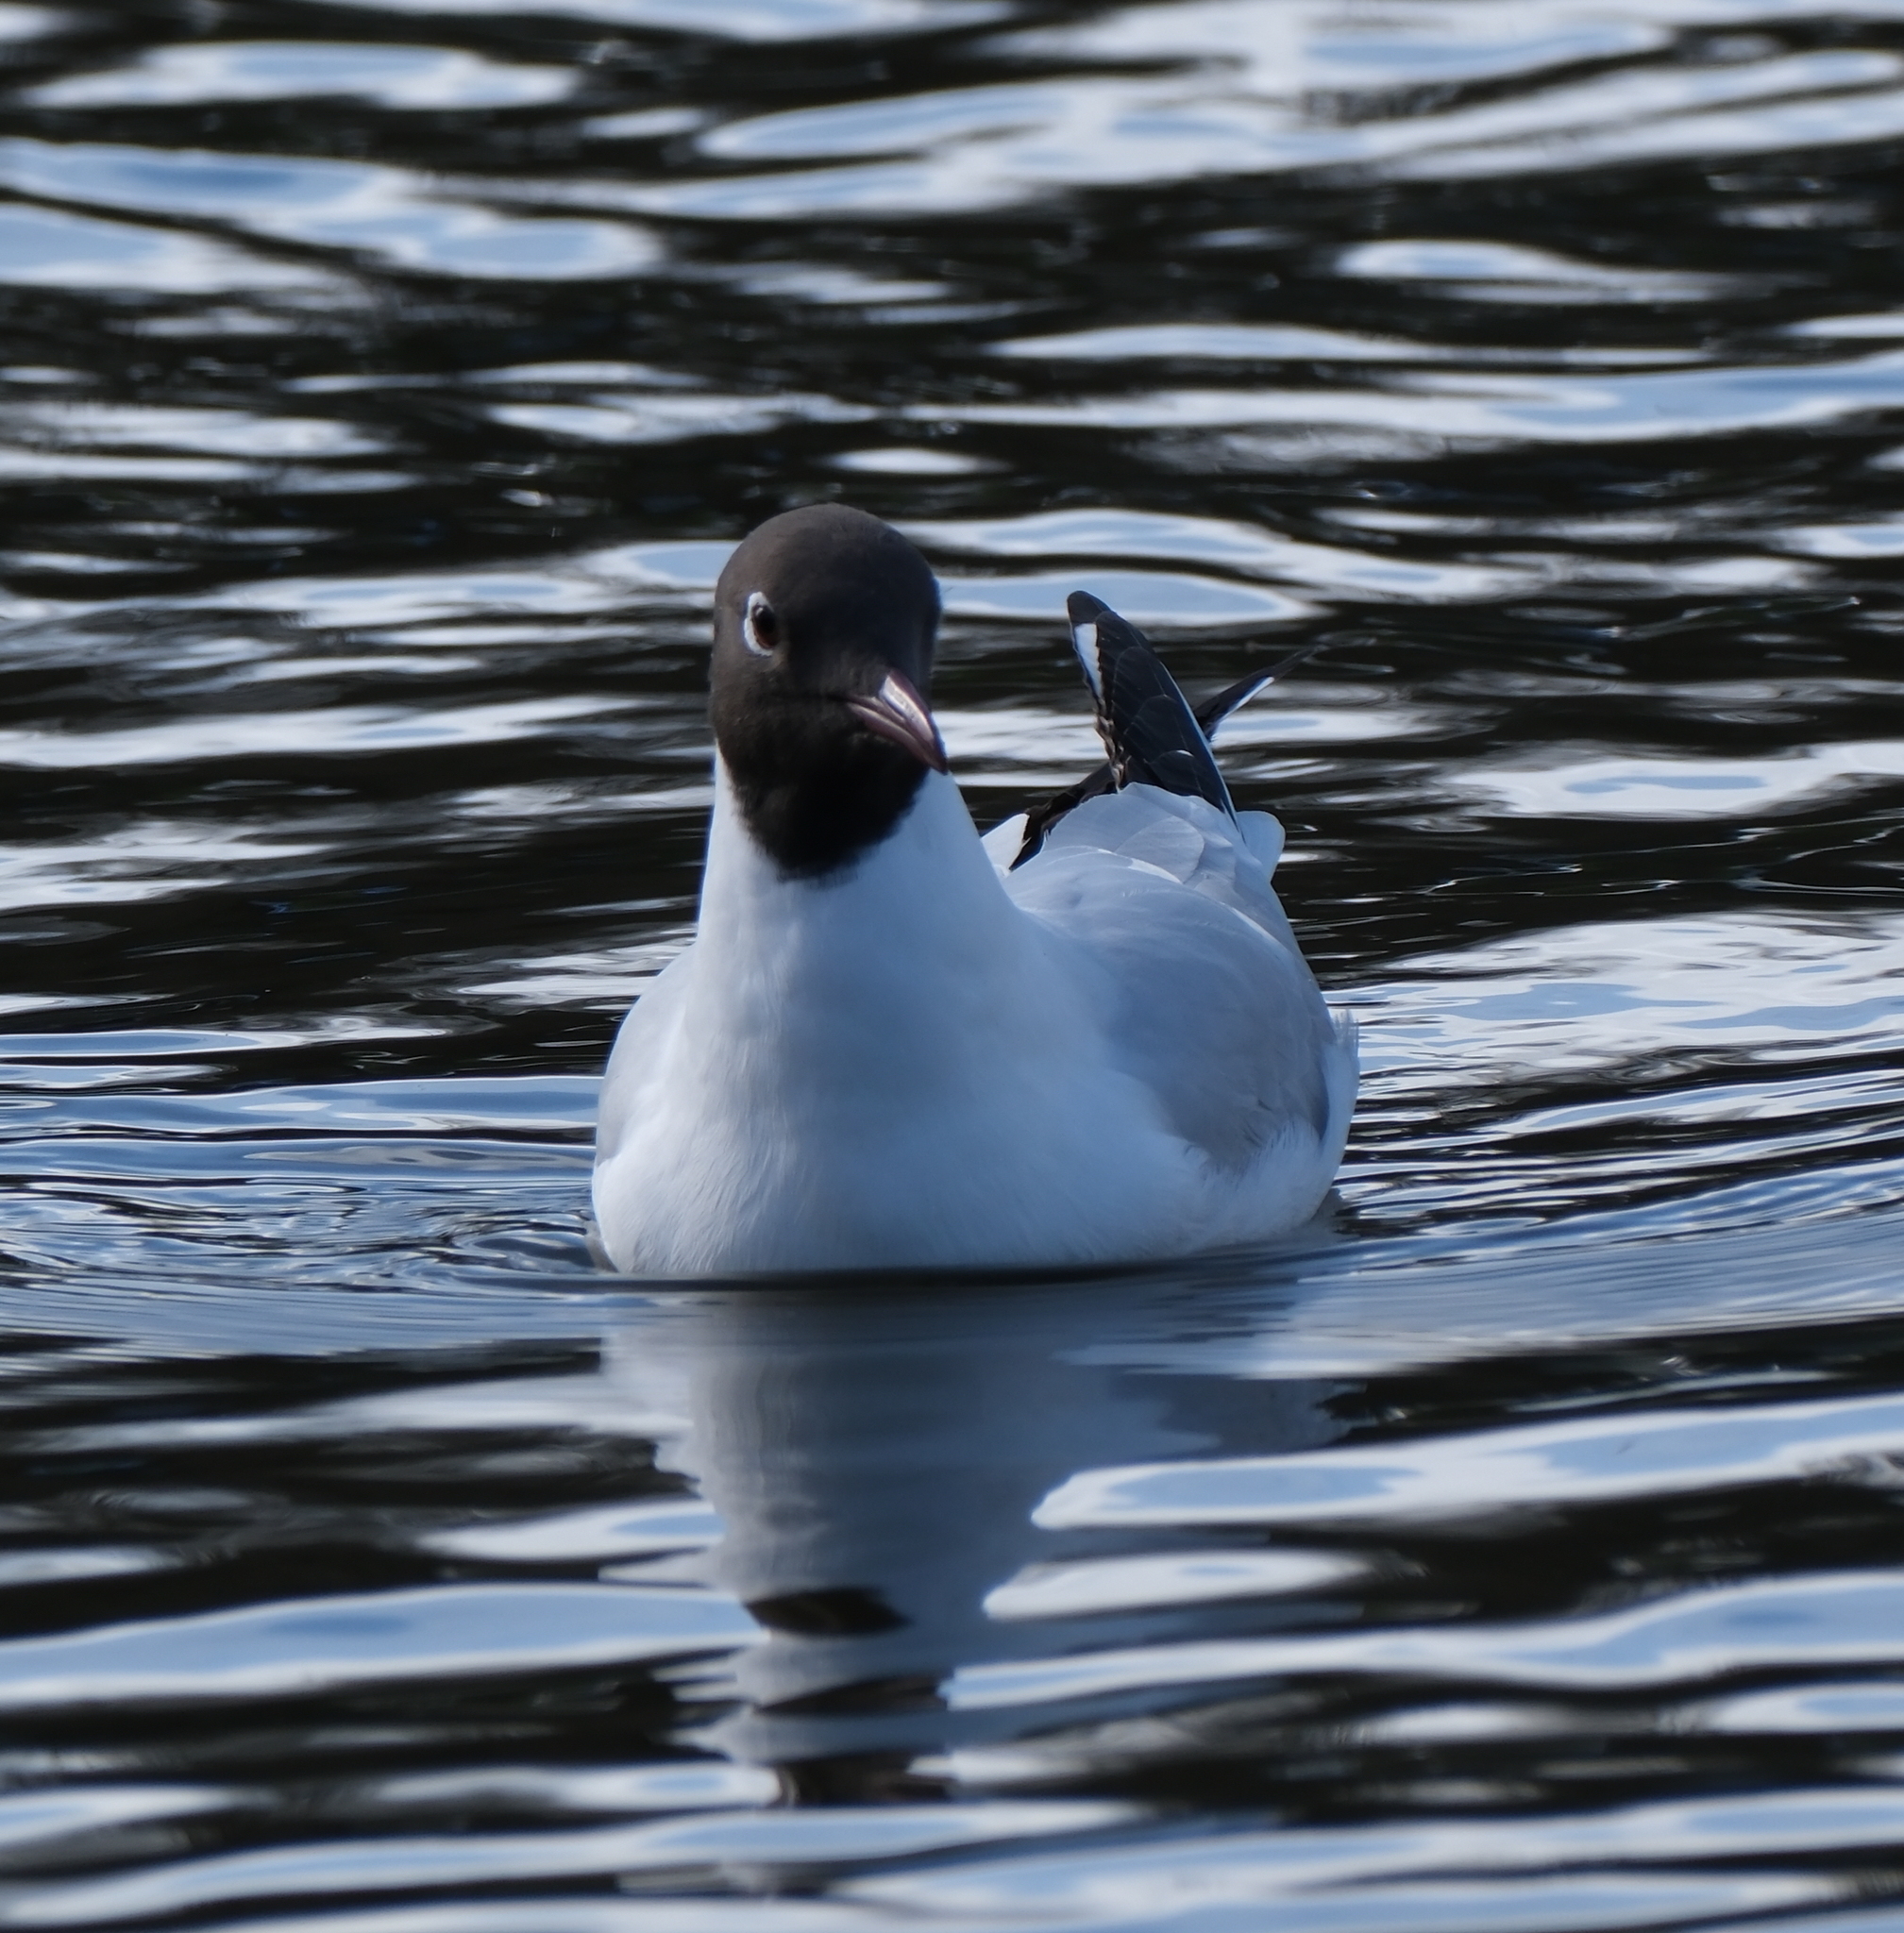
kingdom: Animalia
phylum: Chordata
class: Aves
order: Charadriiformes
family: Laridae
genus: Chroicocephalus
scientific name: Chroicocephalus ridibundus
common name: Black-headed gull
